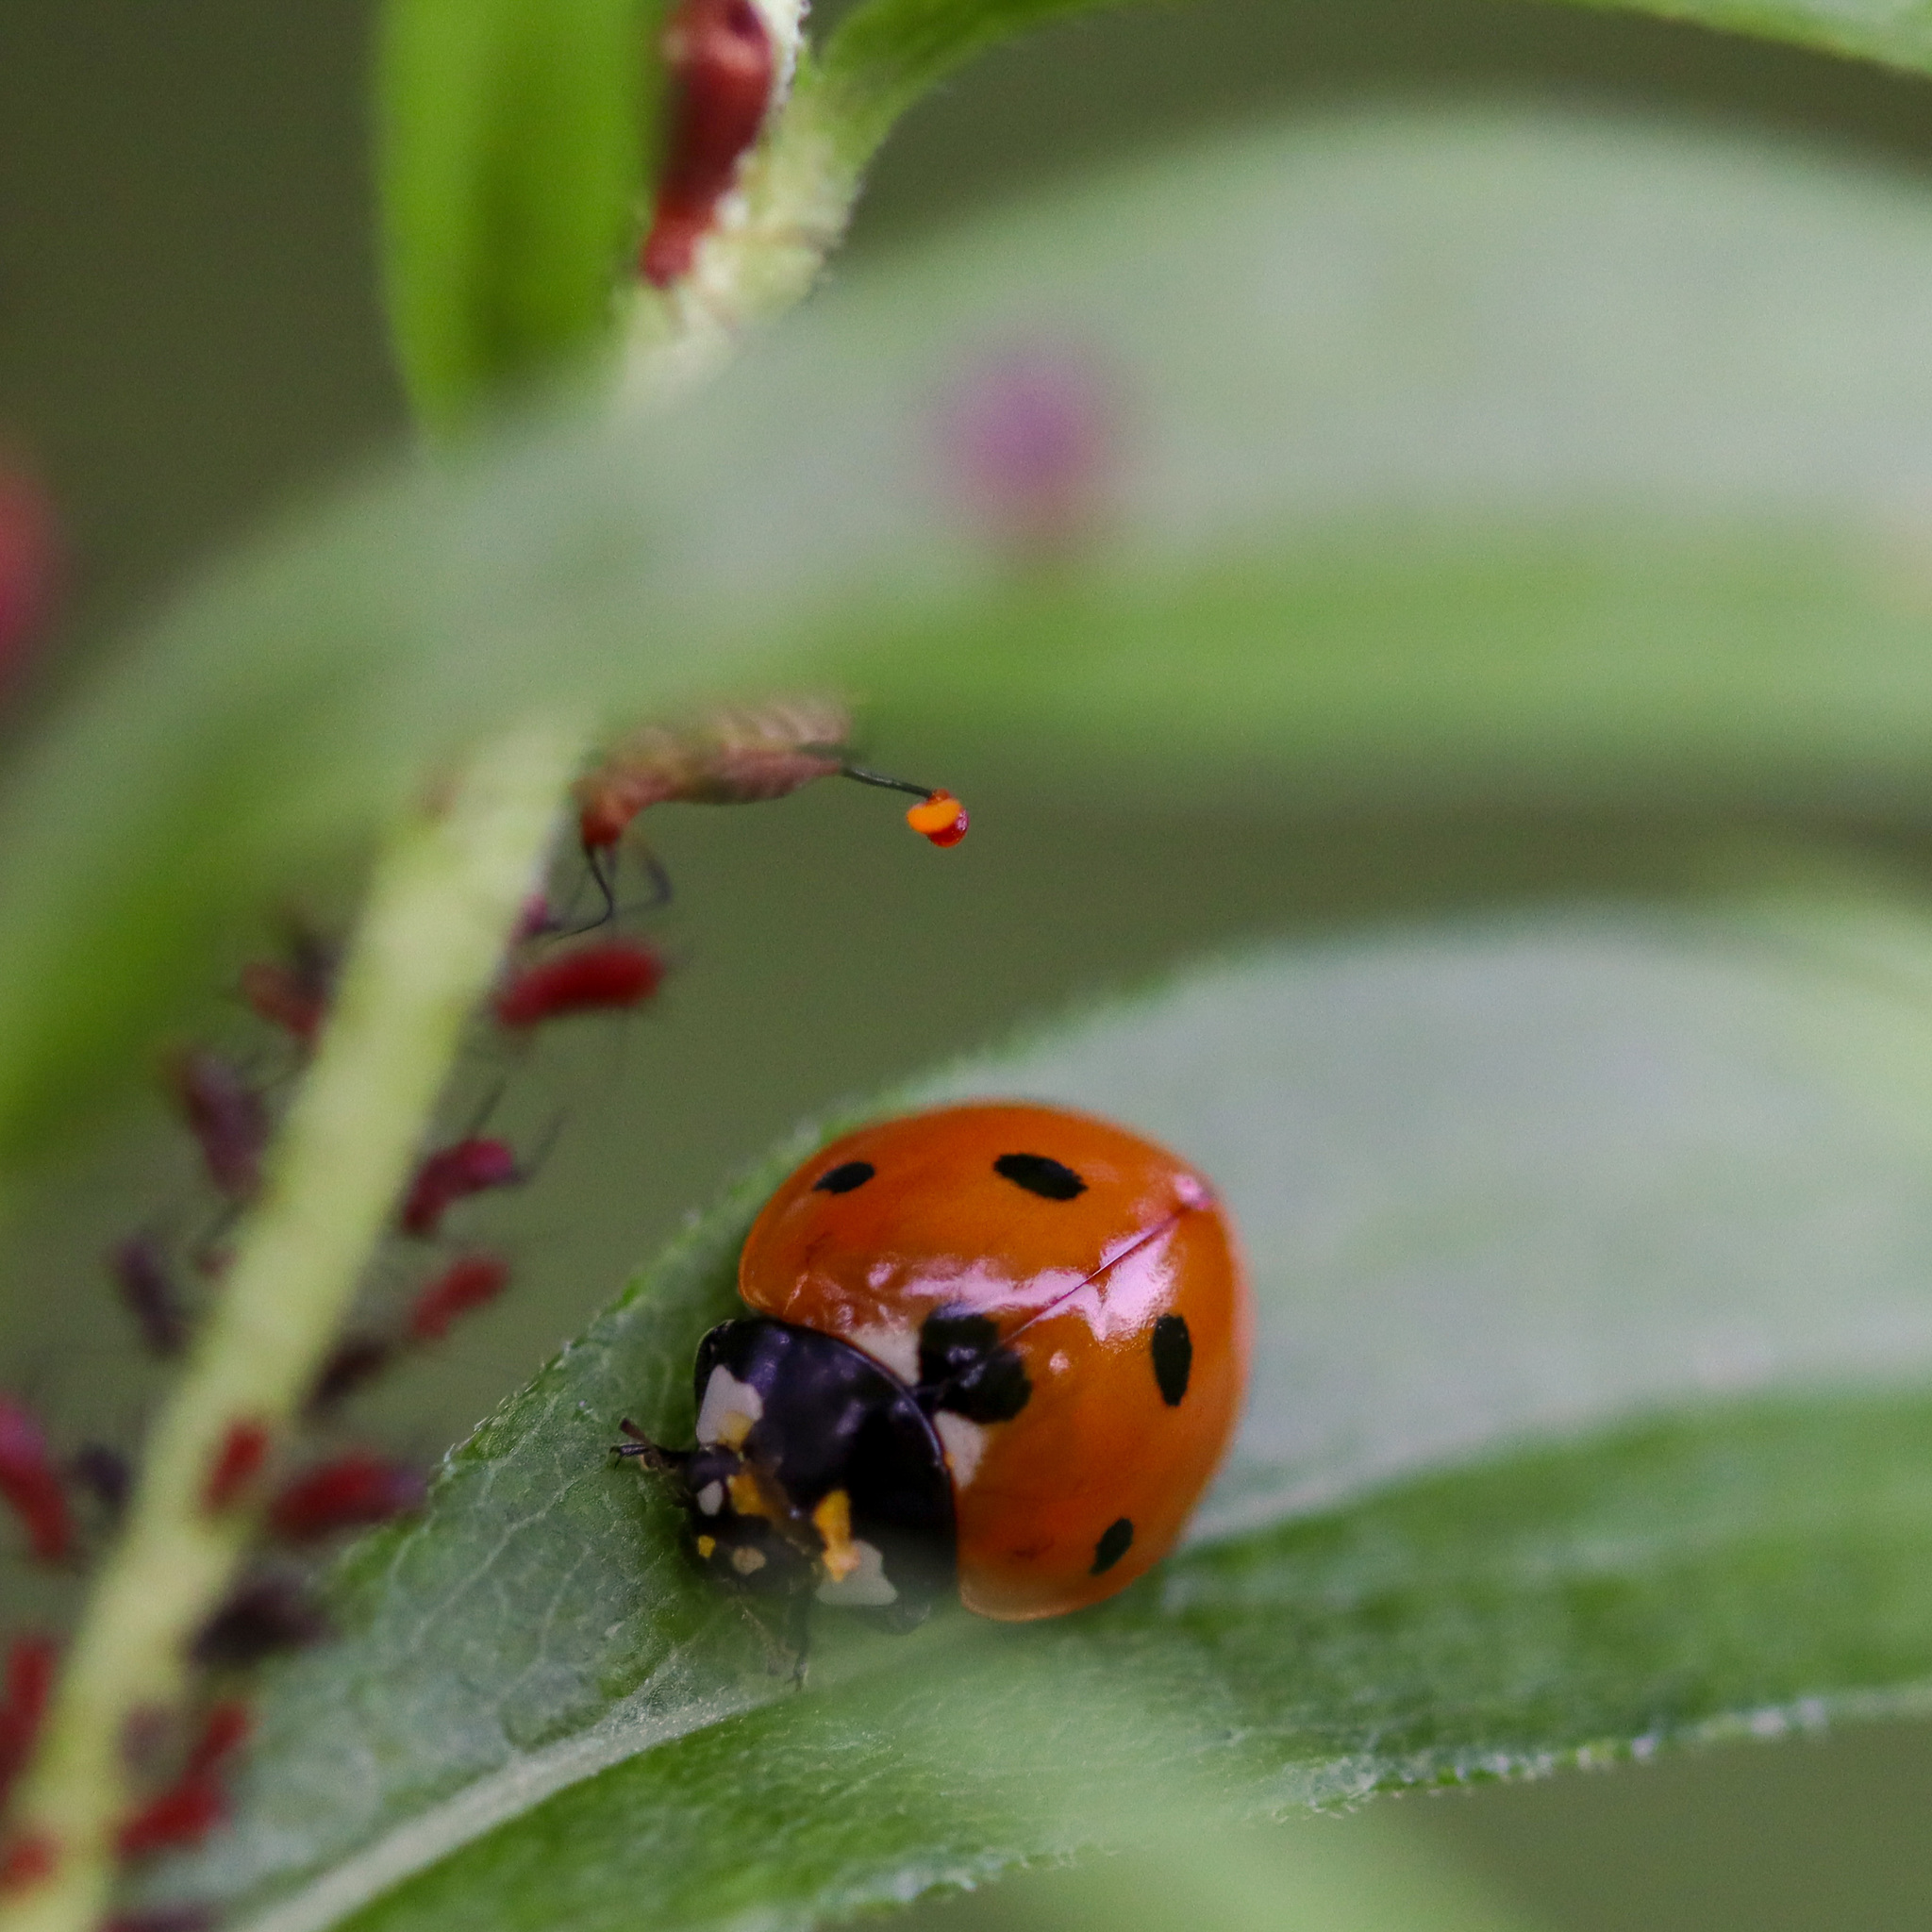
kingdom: Animalia
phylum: Arthropoda
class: Insecta
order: Coleoptera
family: Coccinellidae
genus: Coccinella
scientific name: Coccinella septempunctata
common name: Sevenspotted lady beetle
